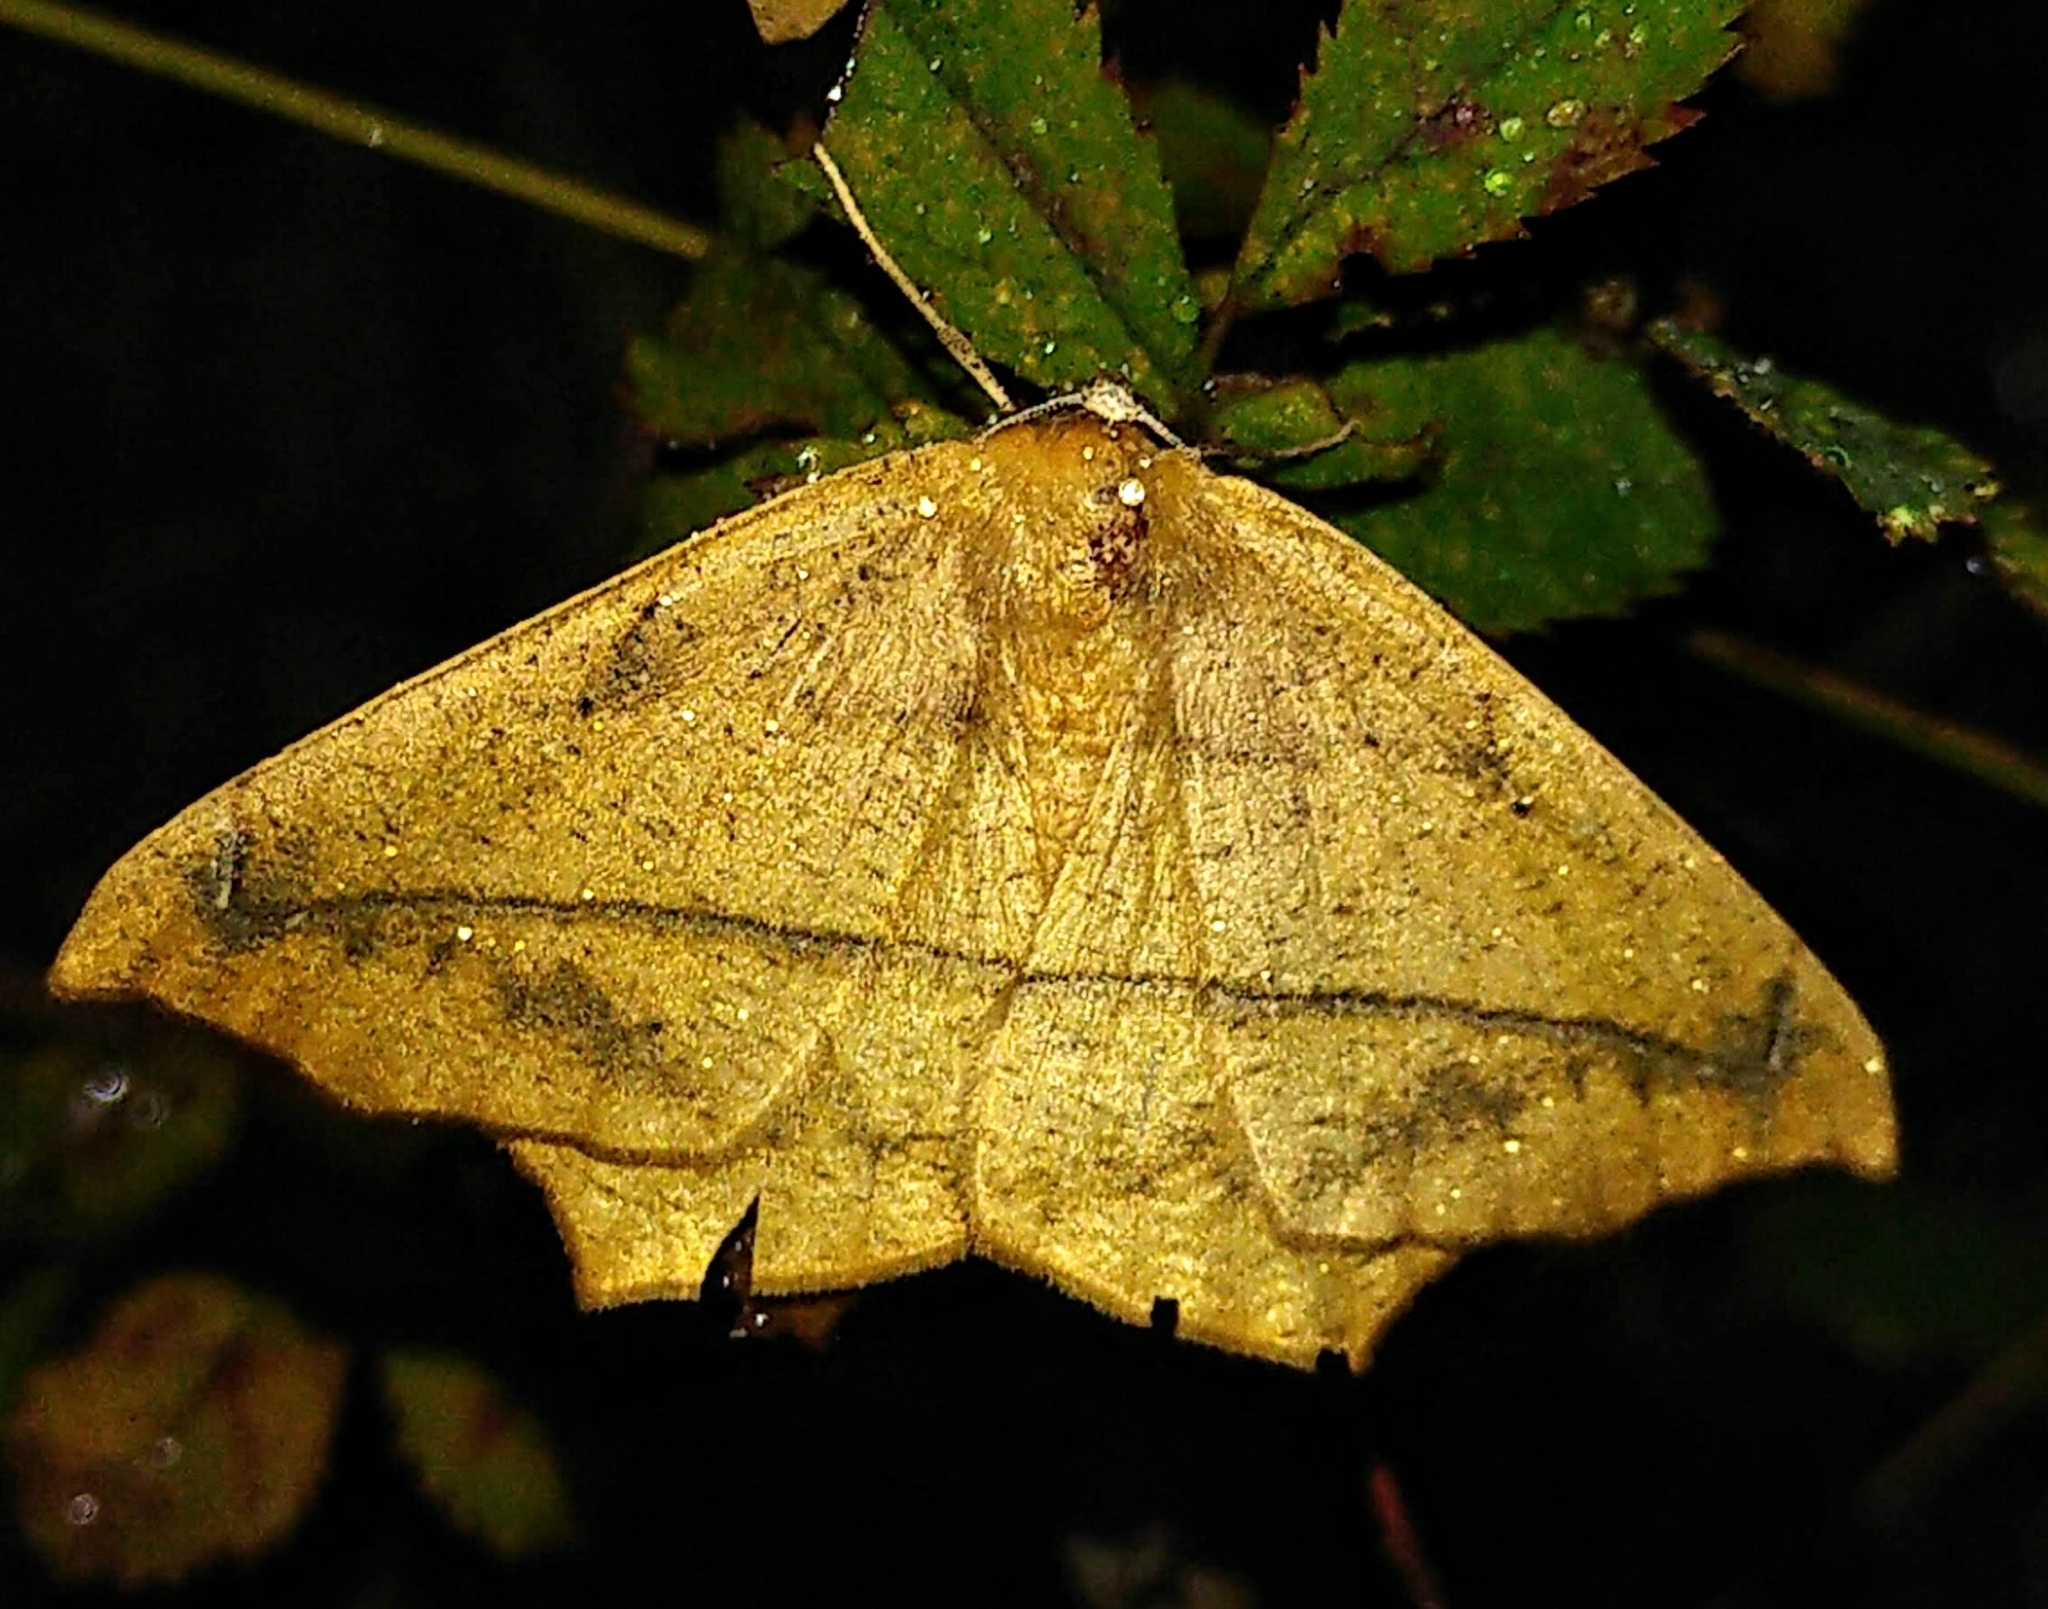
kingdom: Animalia
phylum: Arthropoda
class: Insecta
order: Lepidoptera
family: Geometridae
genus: Prochoerodes
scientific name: Prochoerodes lineola
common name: Large maple spanworm
